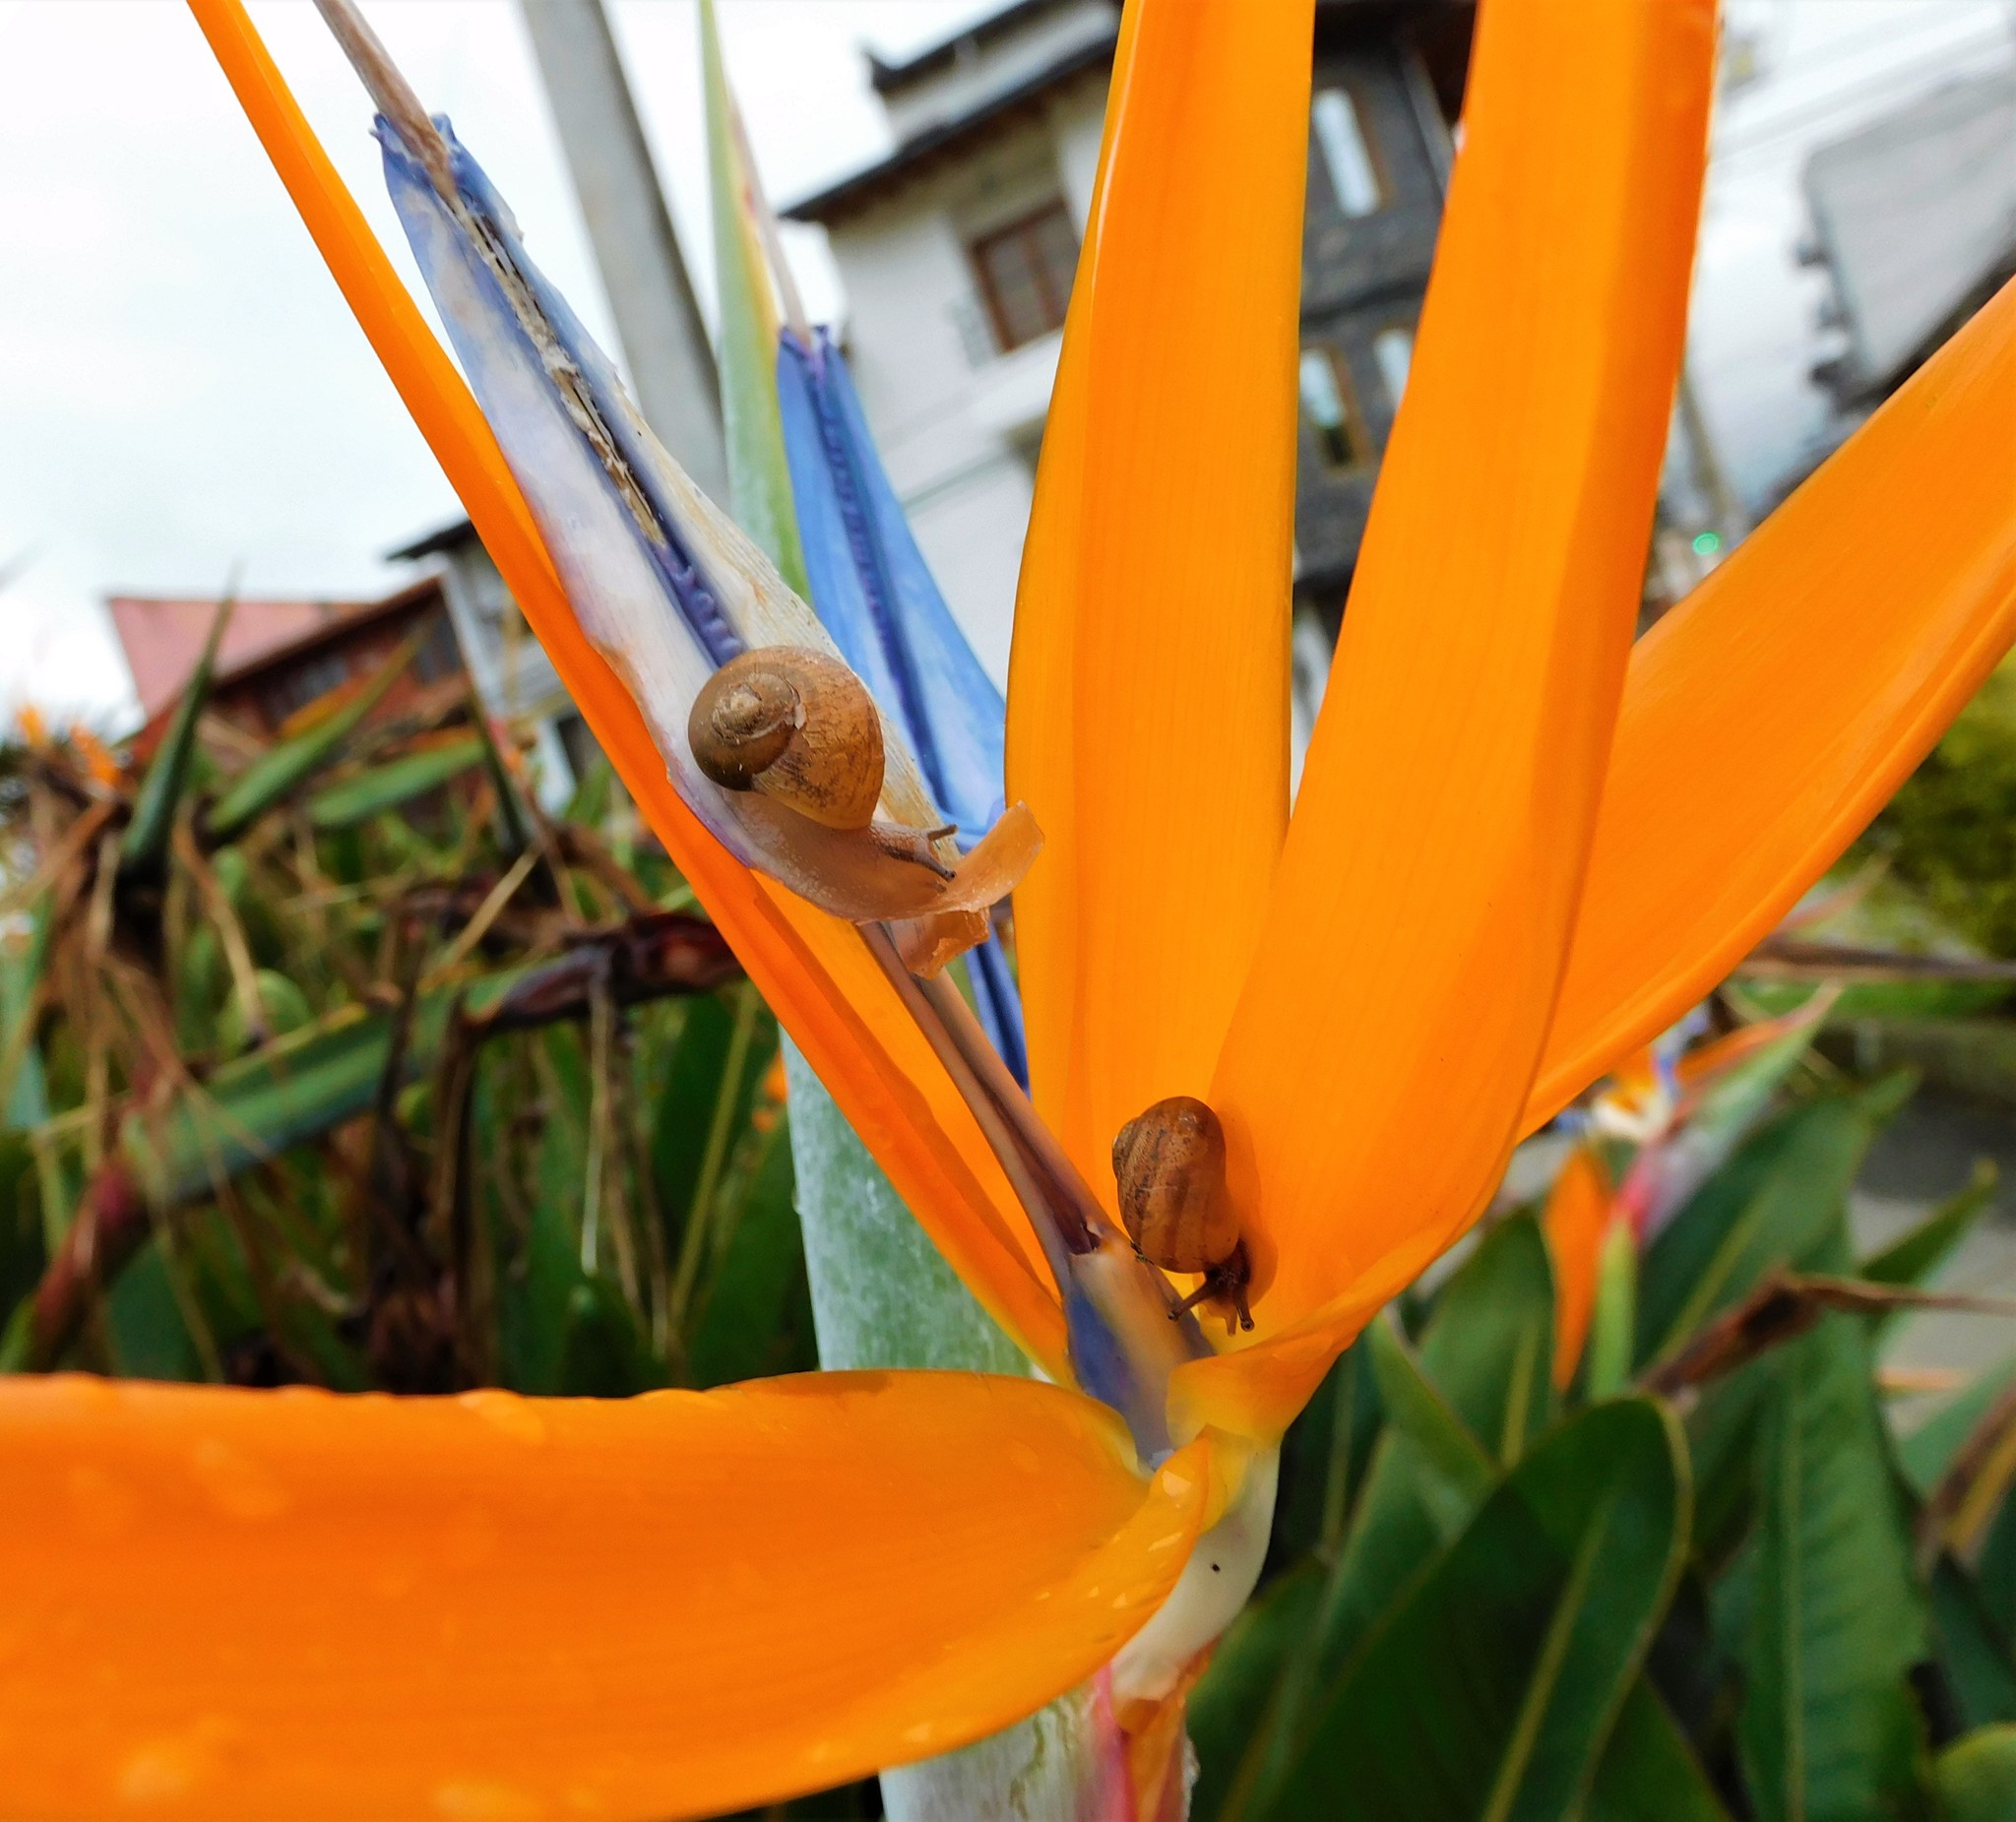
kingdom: Animalia
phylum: Mollusca
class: Gastropoda
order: Stylommatophora
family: Helicidae
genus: Cornu
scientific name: Cornu aspersum
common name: Brown garden snail
